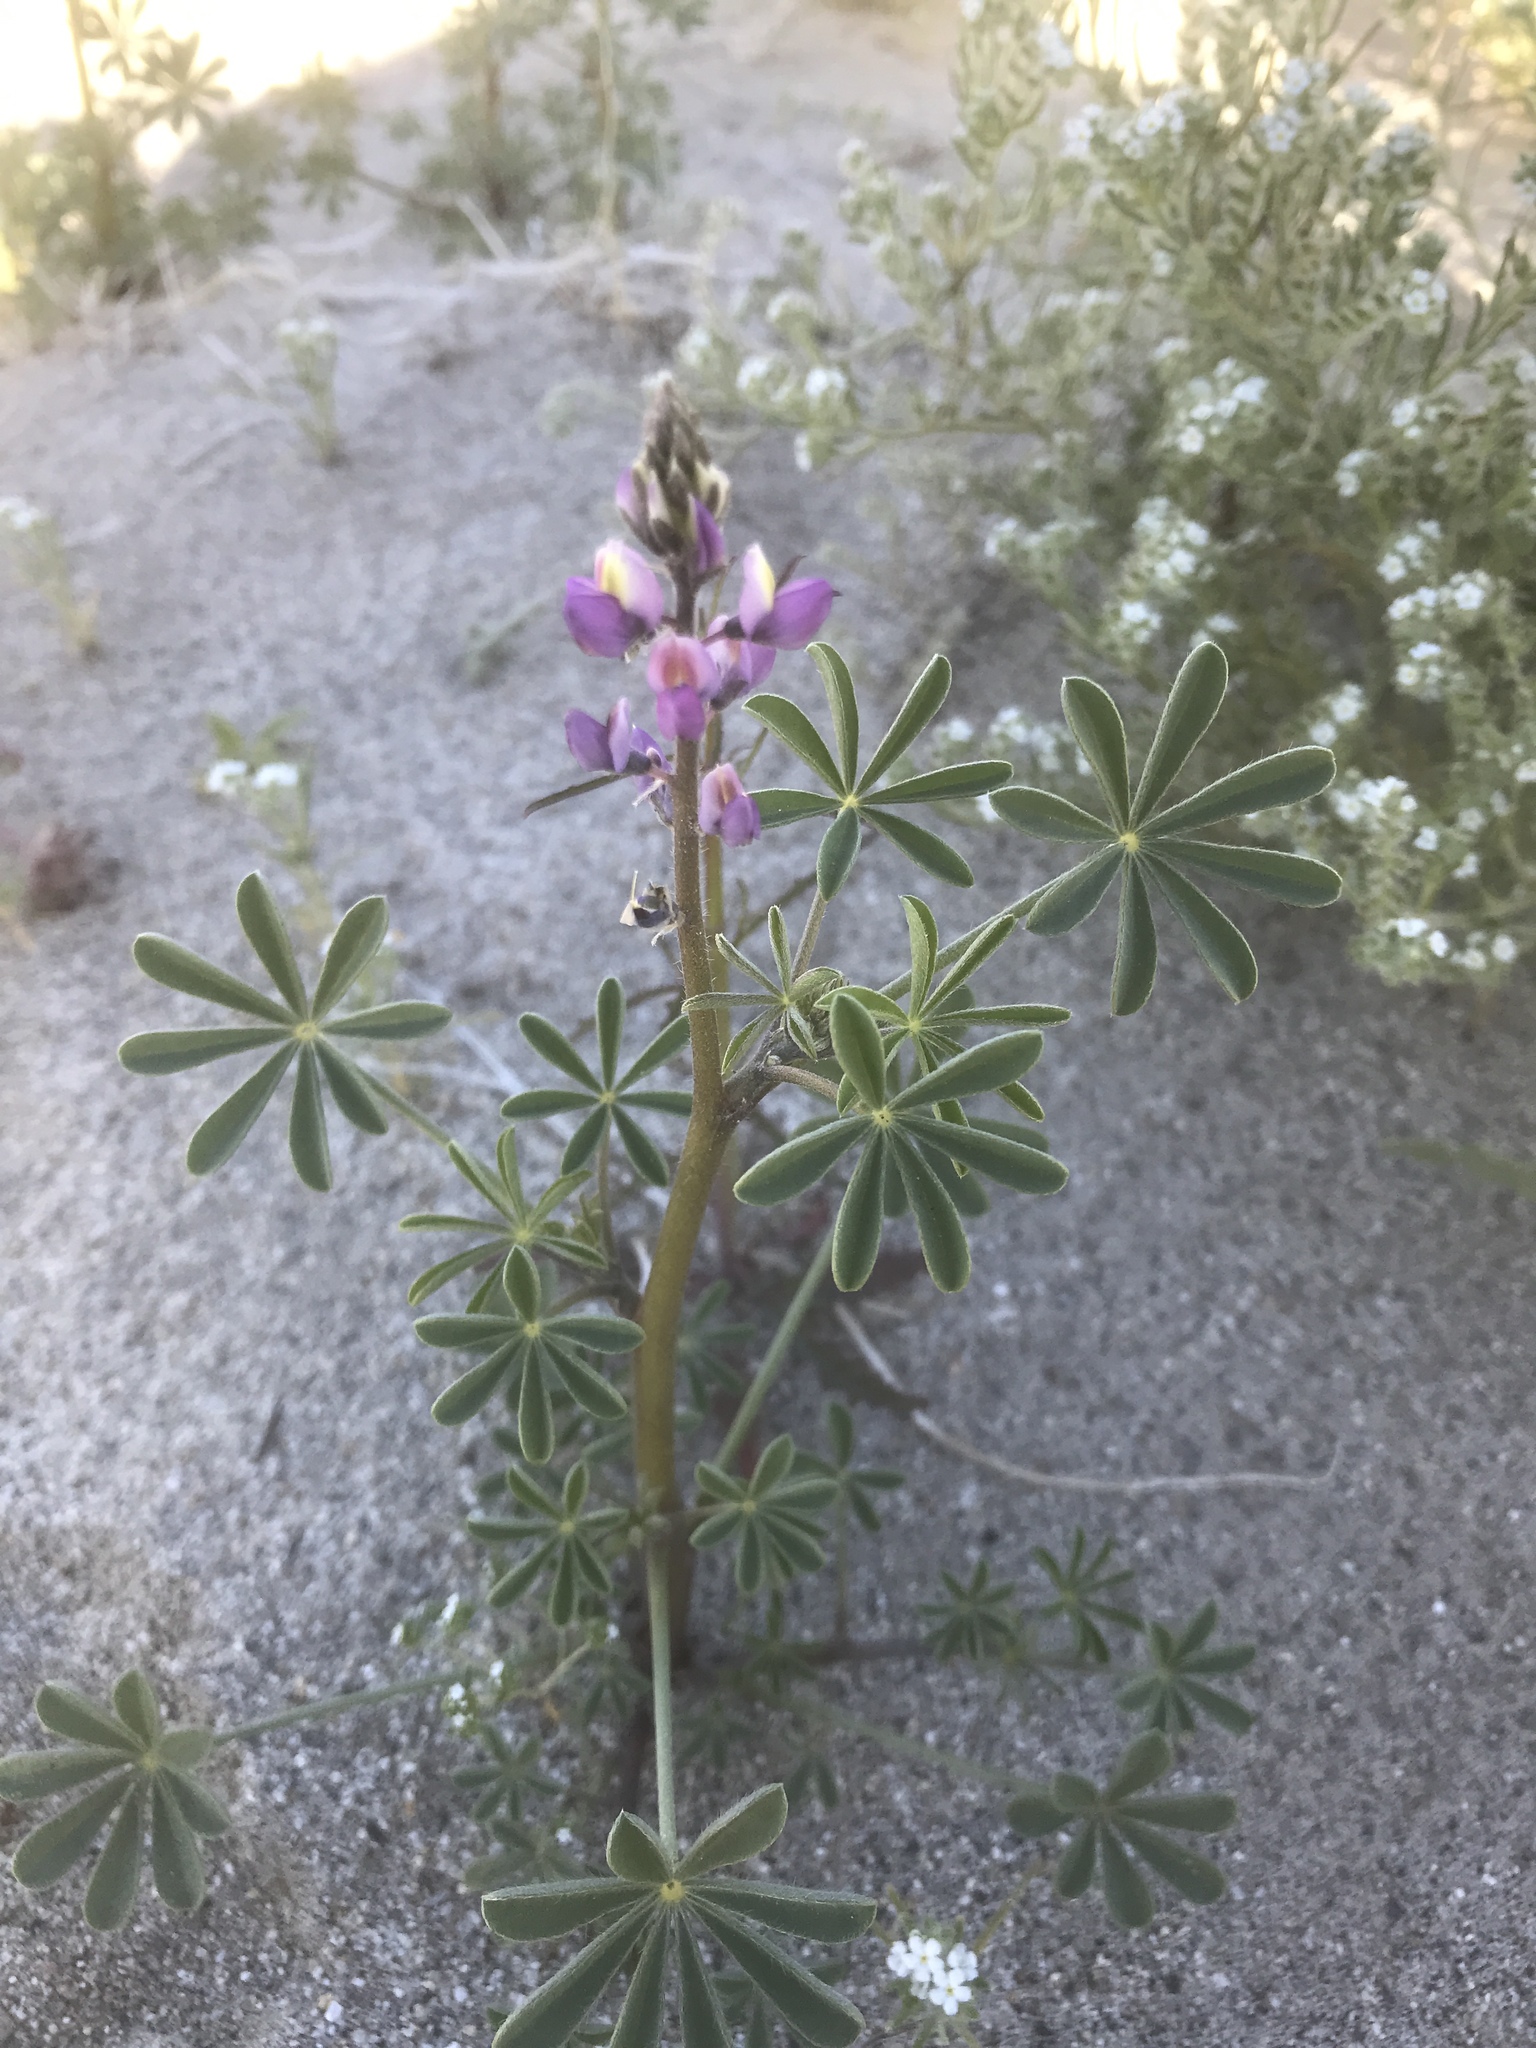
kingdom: Plantae
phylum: Tracheophyta
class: Magnoliopsida
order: Fabales
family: Fabaceae
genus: Lupinus
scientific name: Lupinus arizonicus
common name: Arizona lupine
